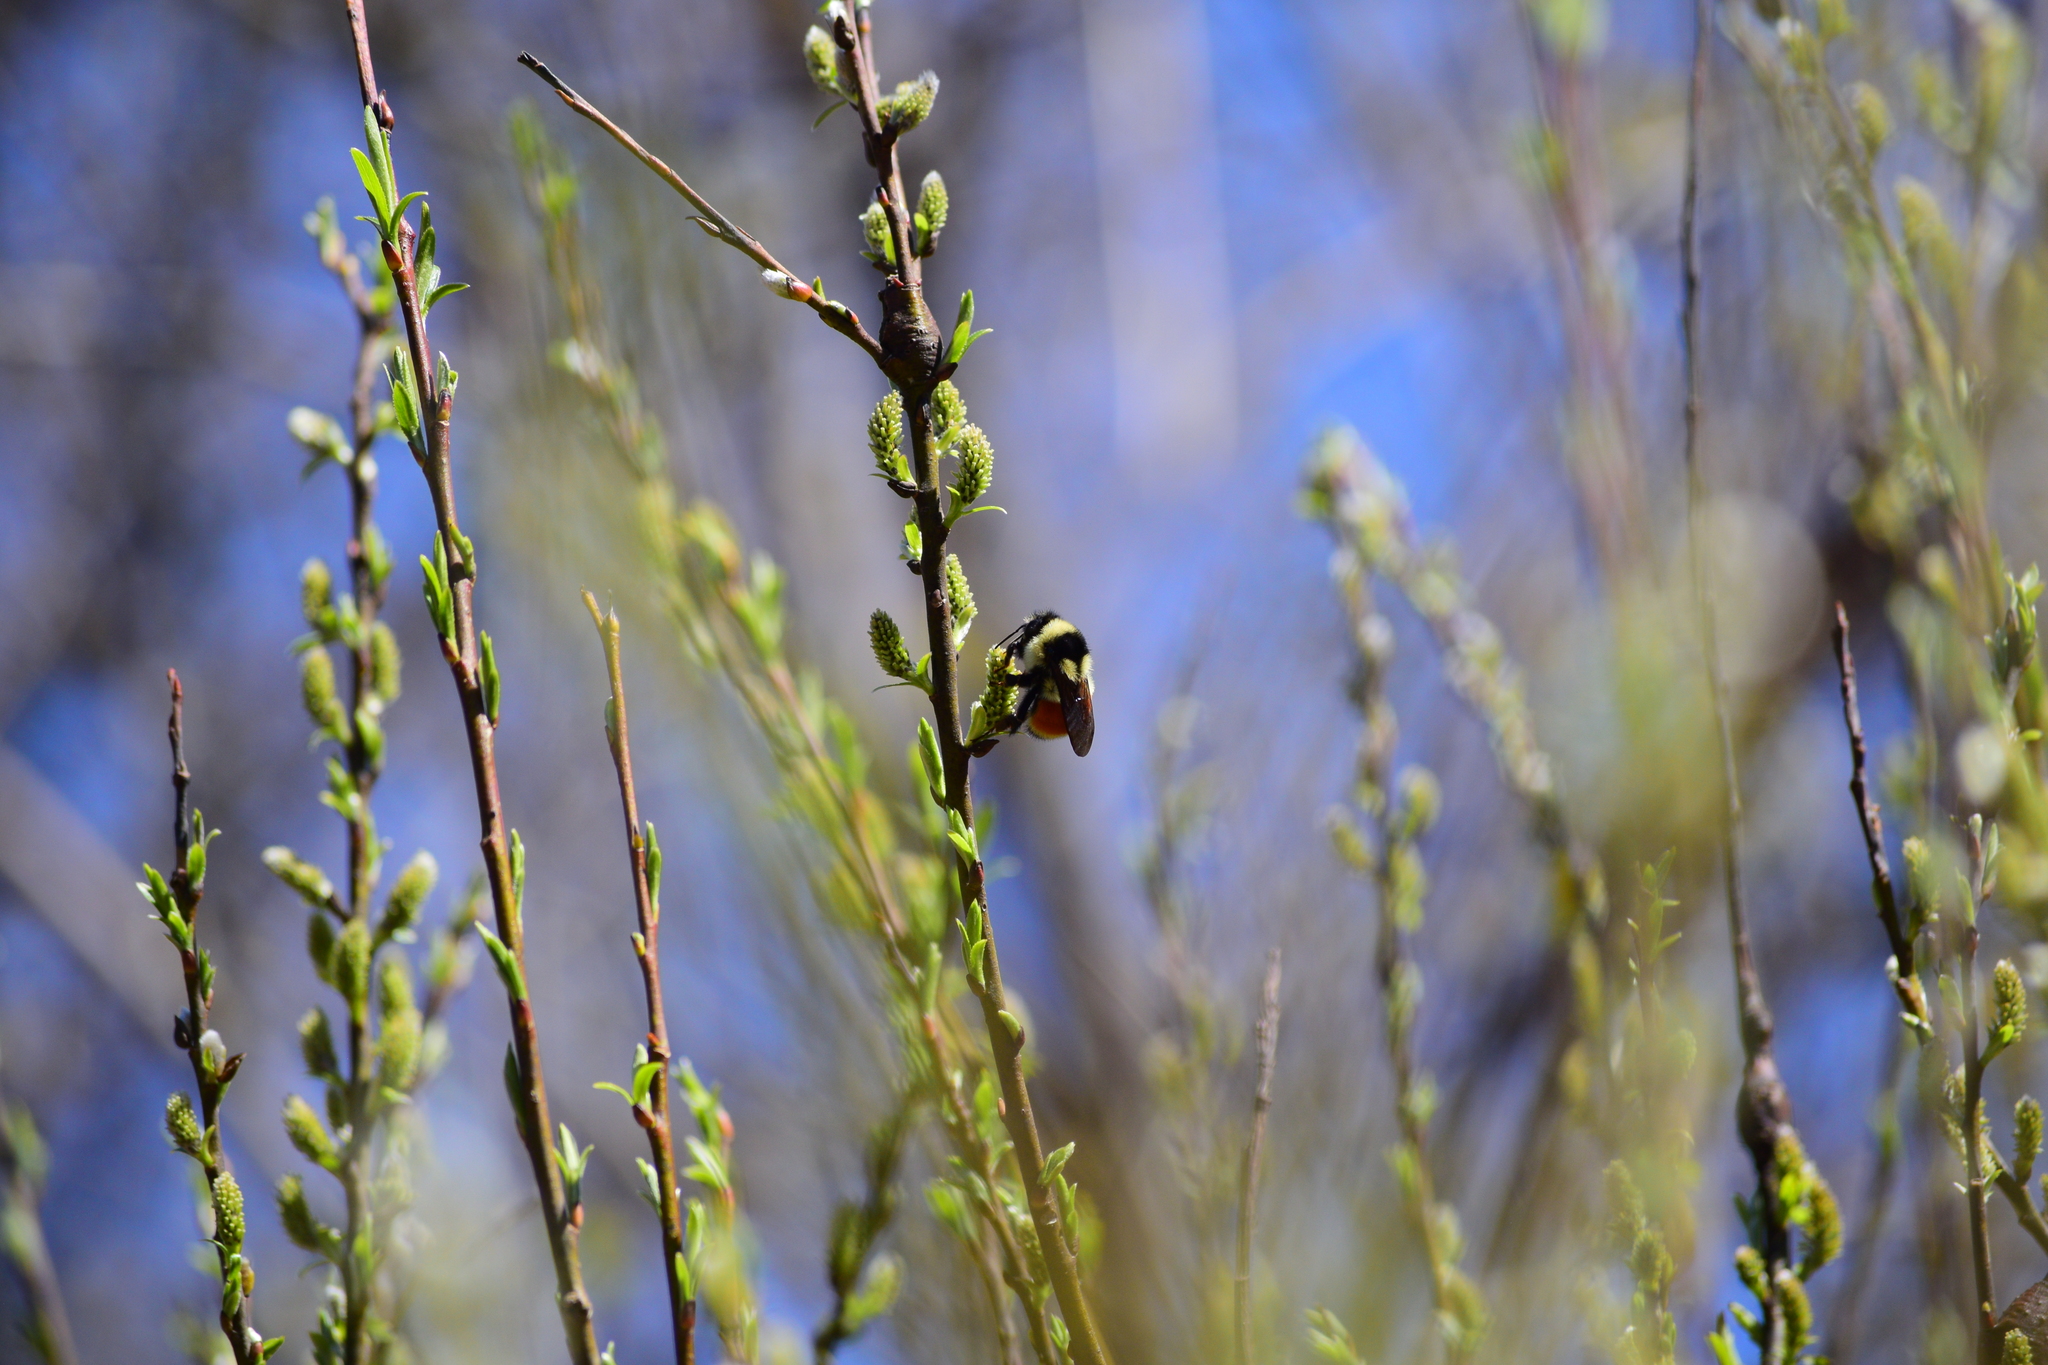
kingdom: Animalia
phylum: Arthropoda
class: Insecta
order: Hymenoptera
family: Apidae
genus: Bombus
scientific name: Bombus ternarius
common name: Tri-colored bumble bee
